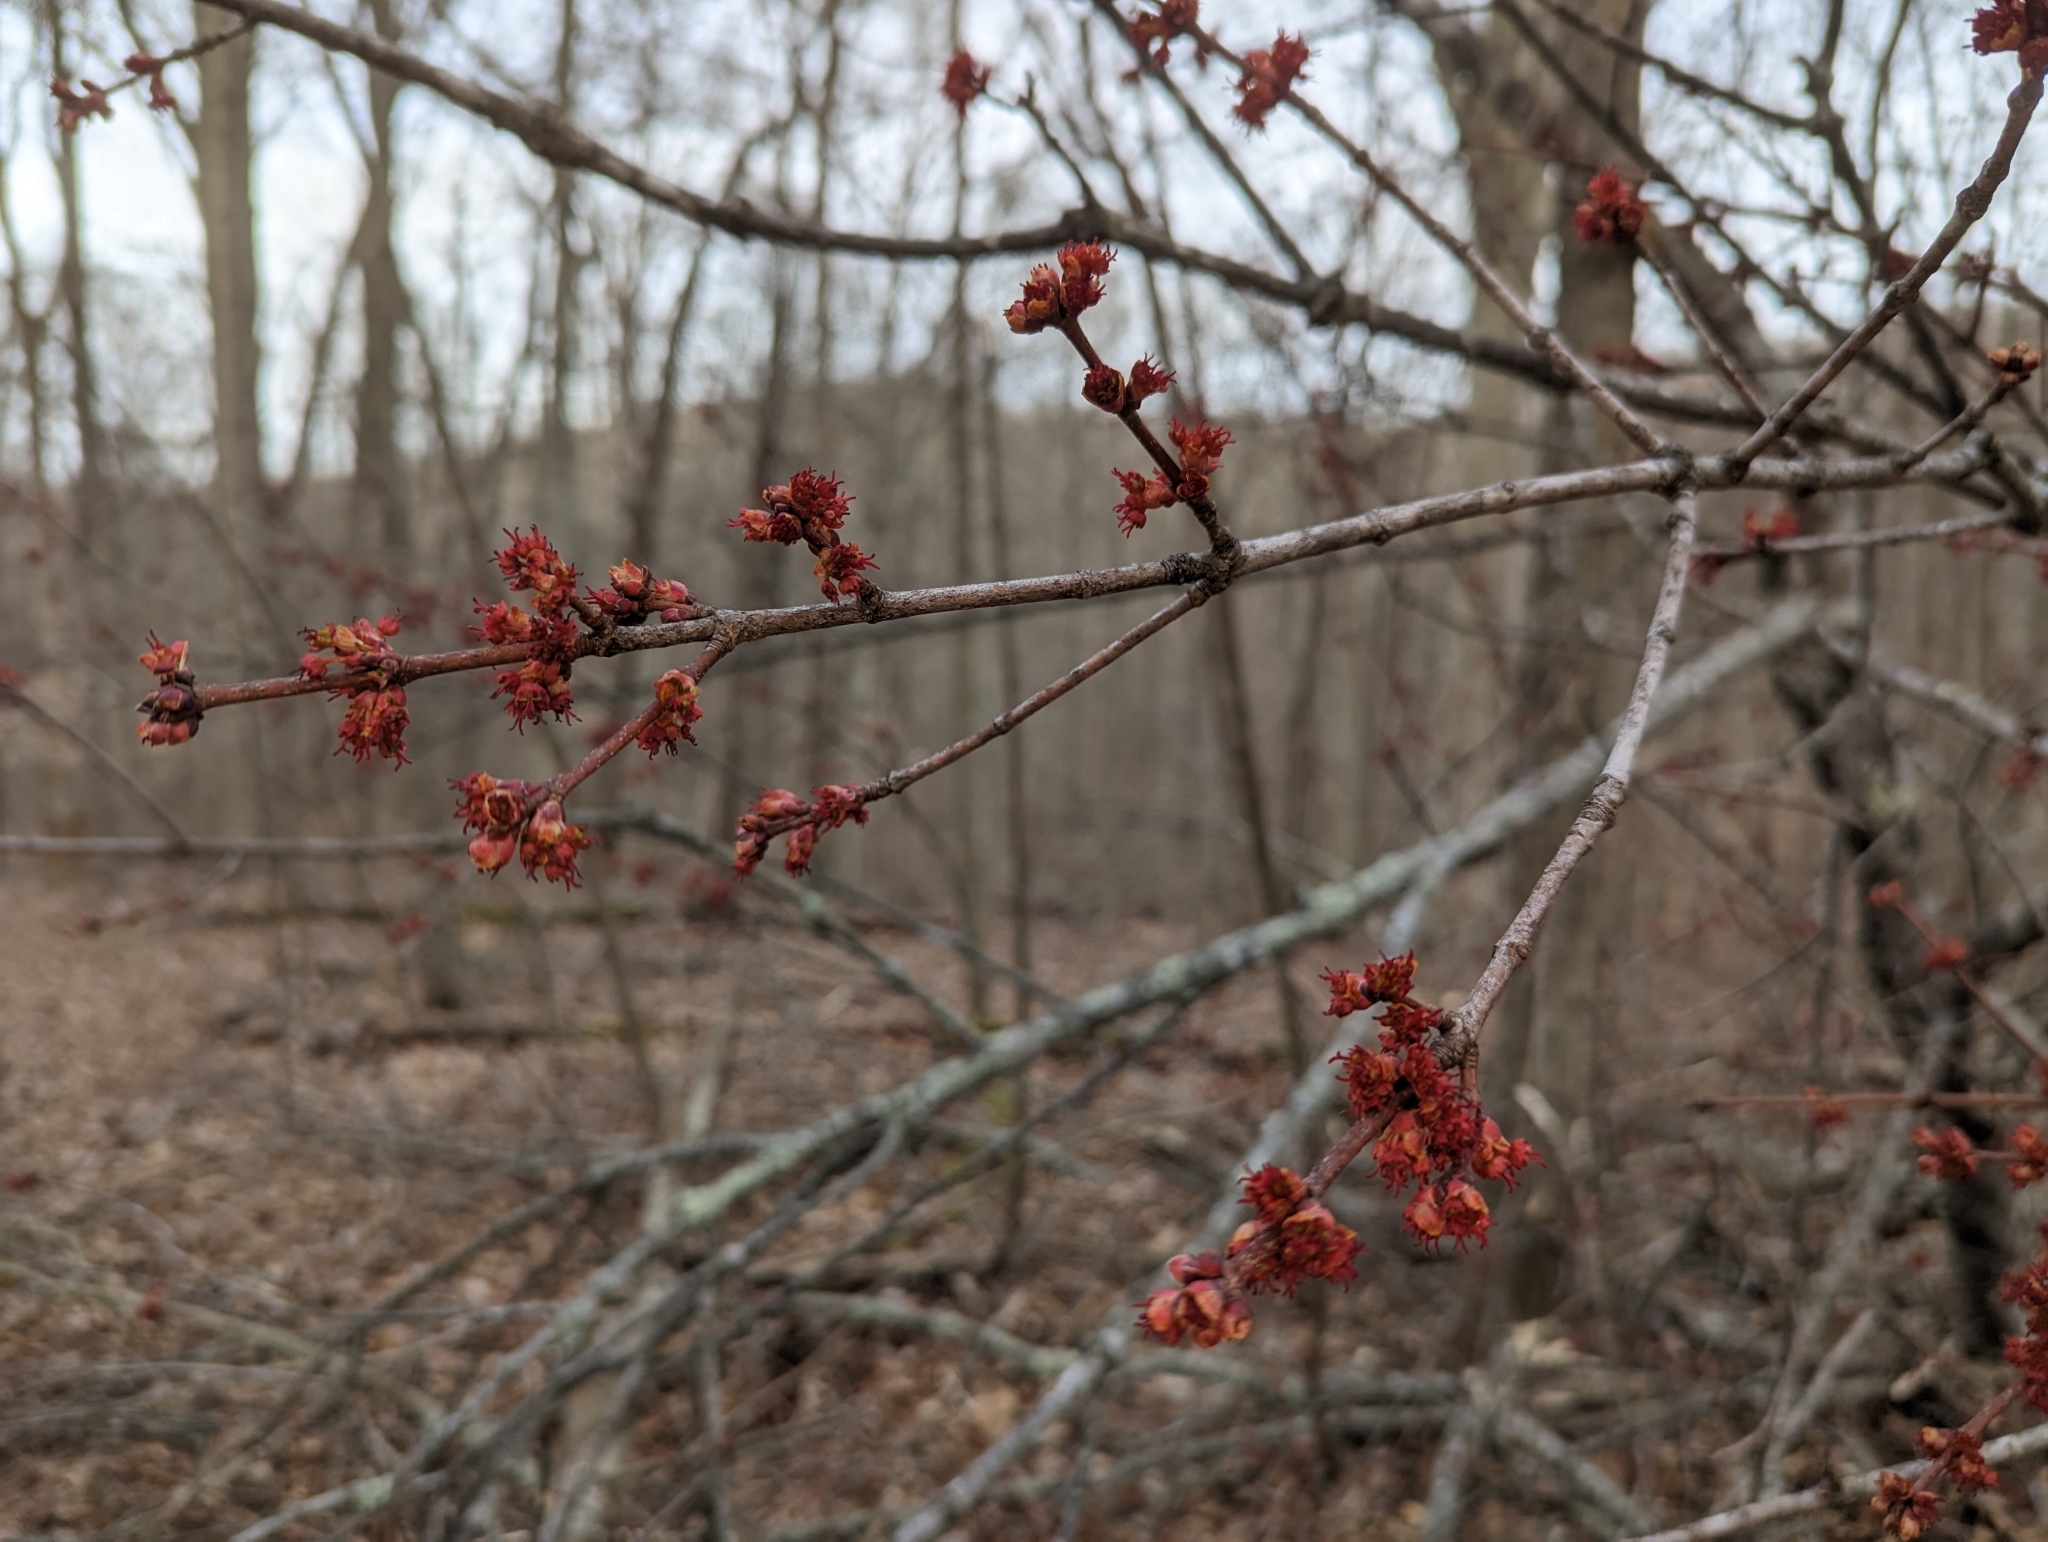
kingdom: Plantae
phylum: Tracheophyta
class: Magnoliopsida
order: Sapindales
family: Sapindaceae
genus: Acer
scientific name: Acer rubrum
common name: Red maple
